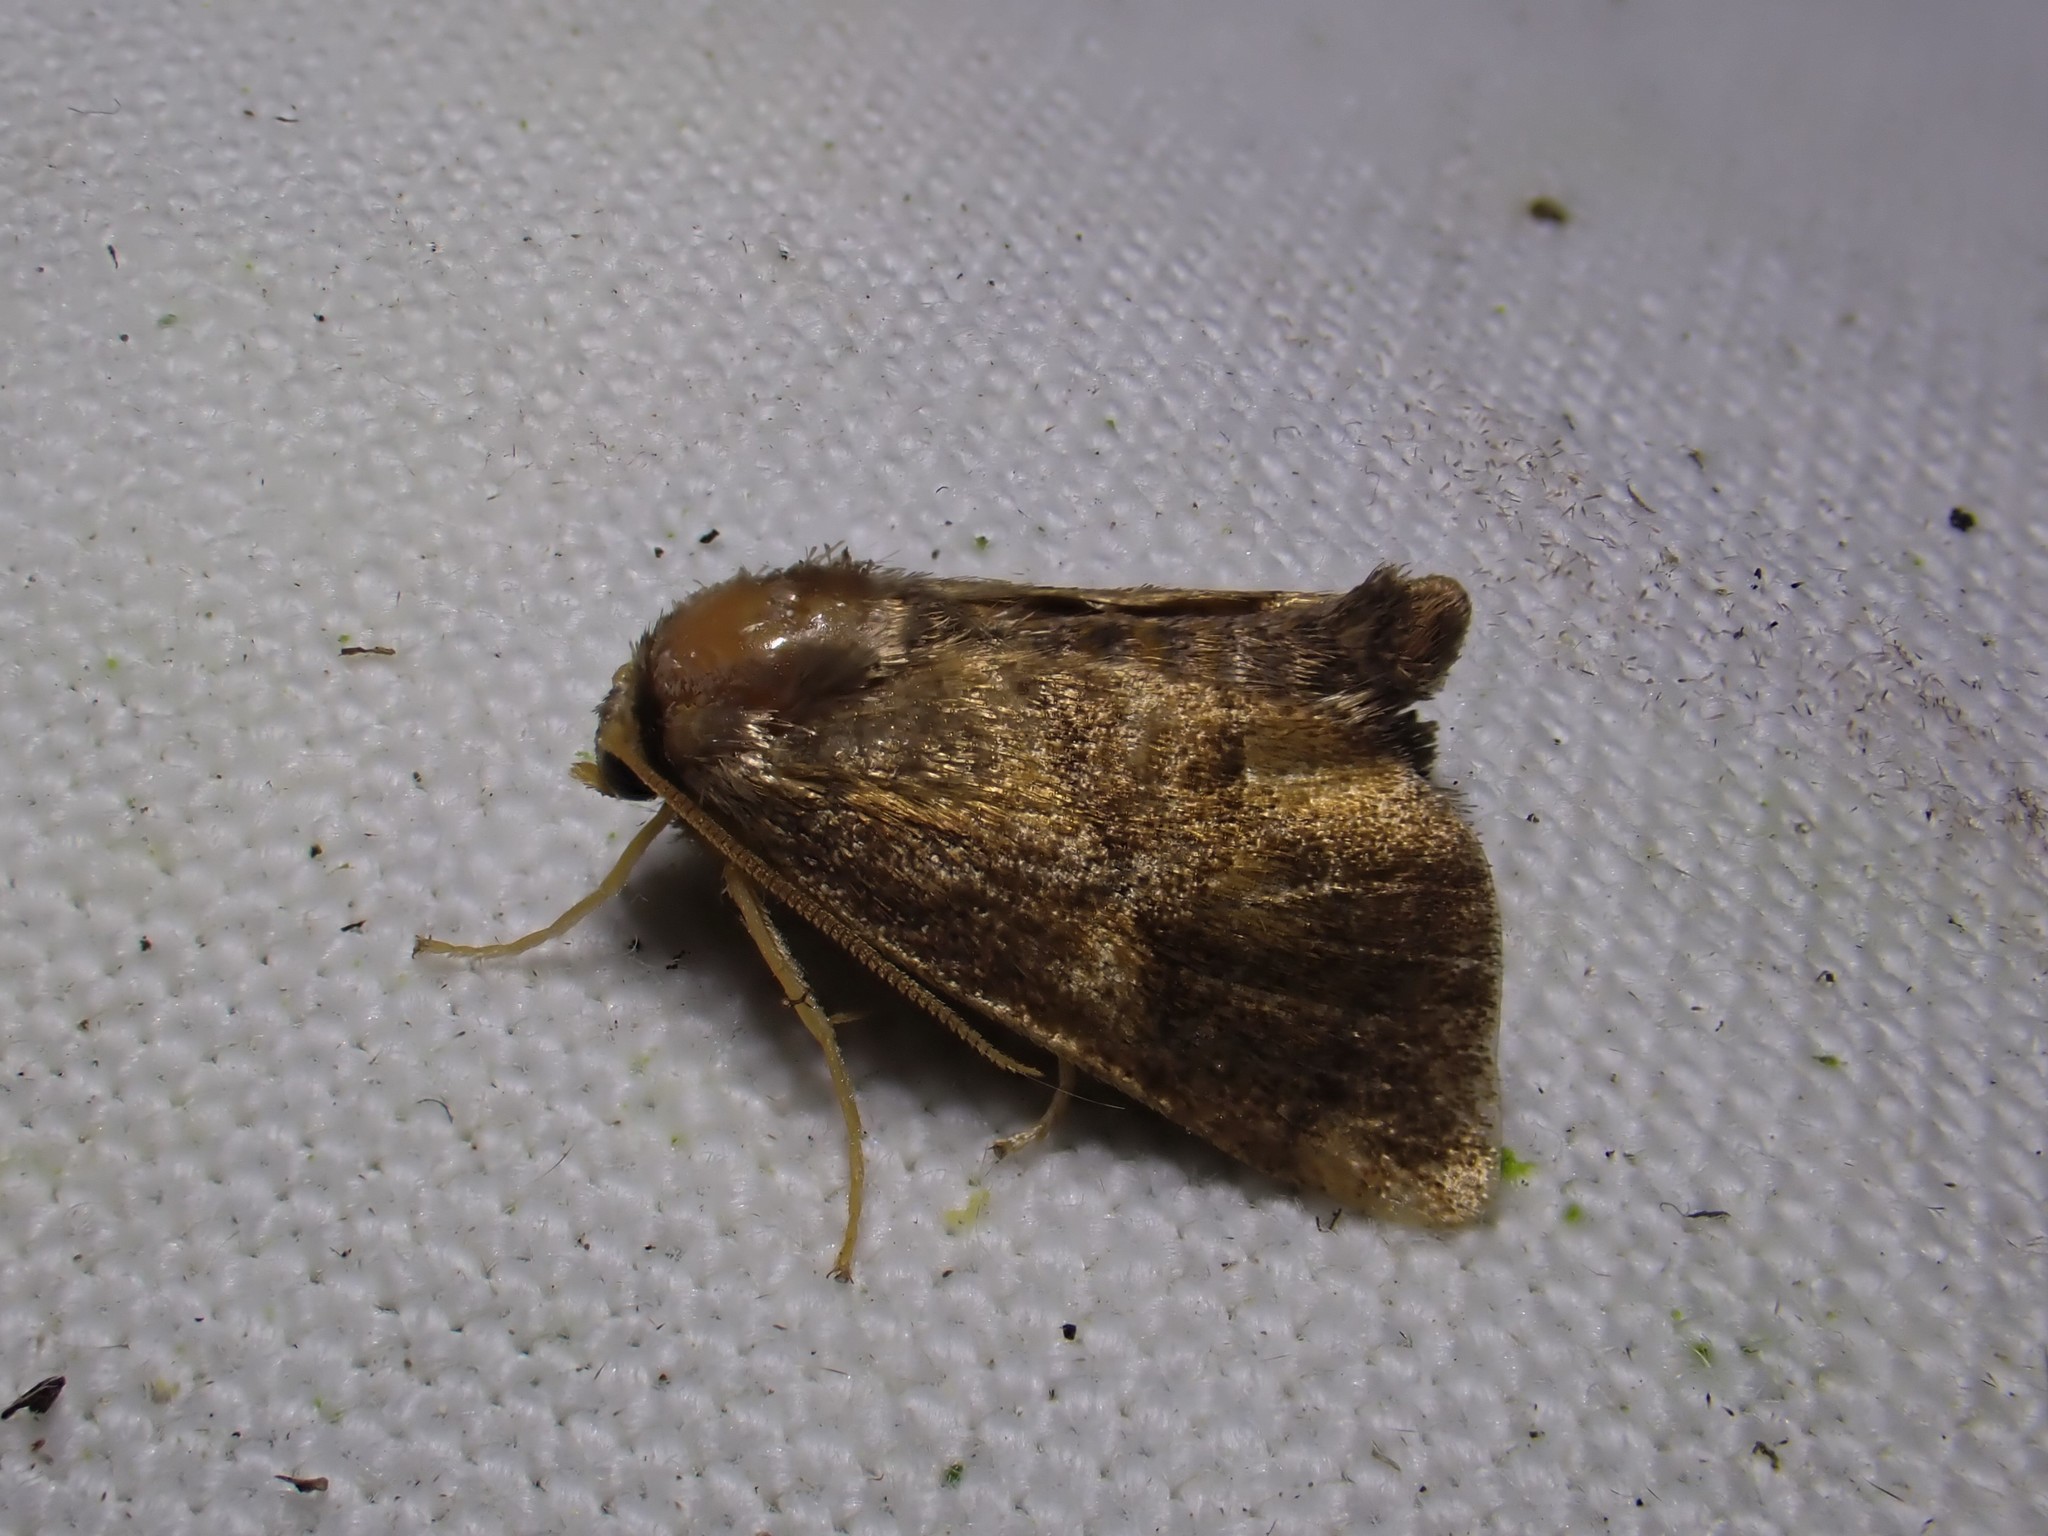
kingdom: Animalia
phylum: Arthropoda
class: Insecta
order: Lepidoptera
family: Limacodidae
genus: Apoda
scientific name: Apoda limacodes
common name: Festoon
